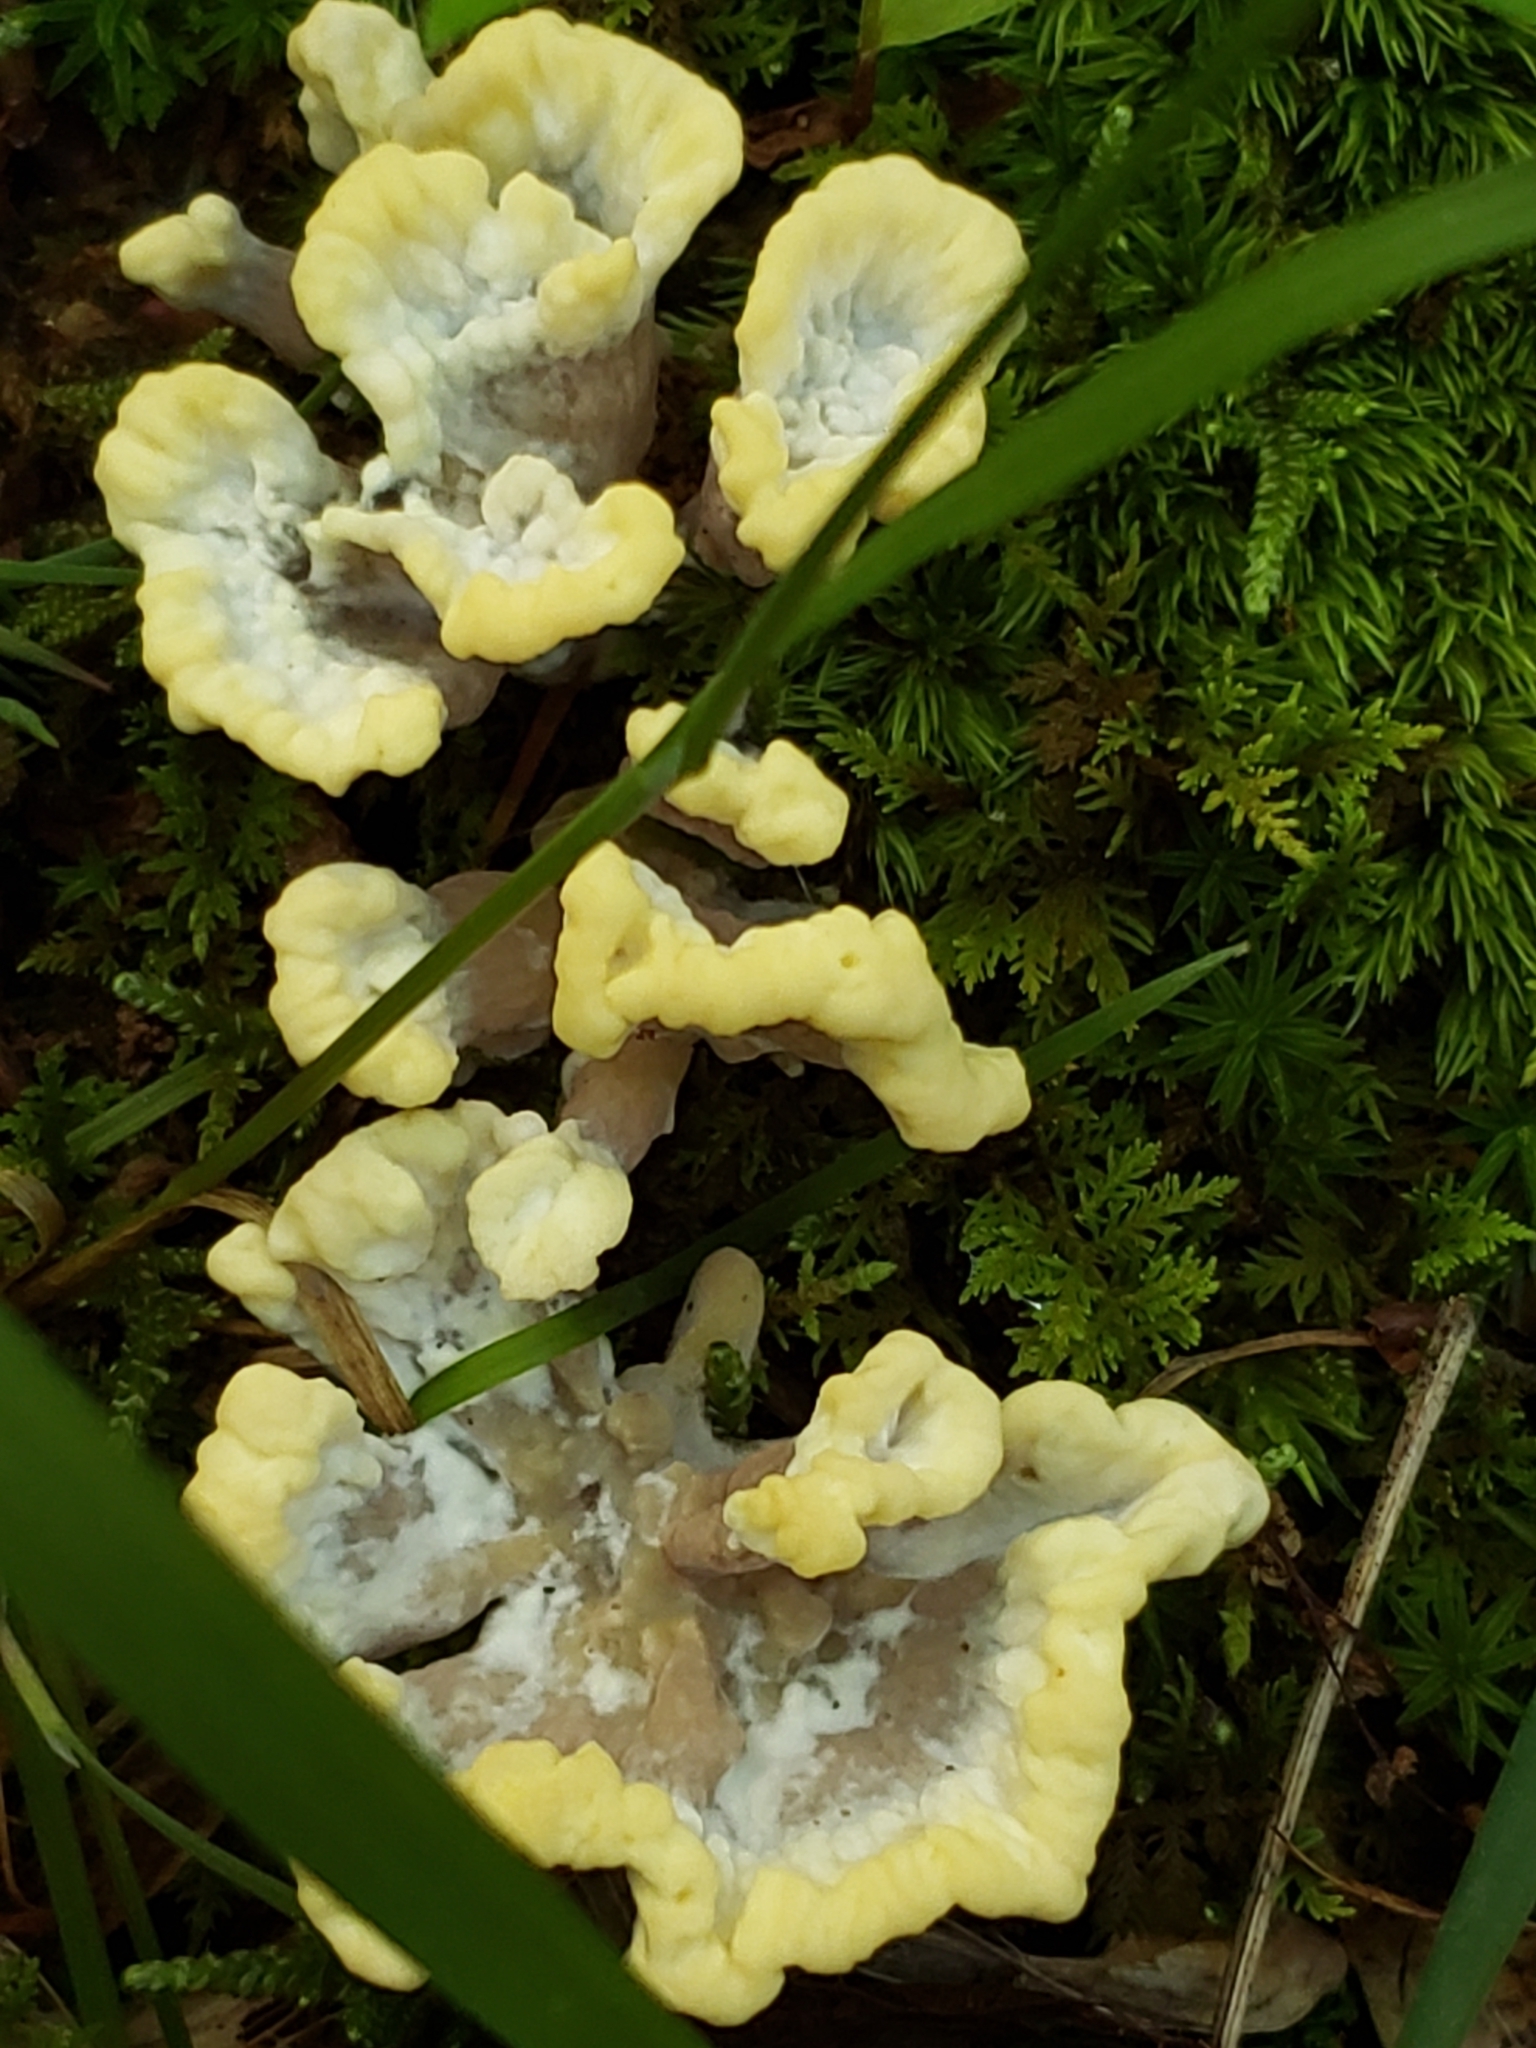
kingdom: Fungi
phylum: Basidiomycota
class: Agaricomycetes
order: Thelephorales
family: Thelephoraceae
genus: Thelephora
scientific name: Thelephora vialis
